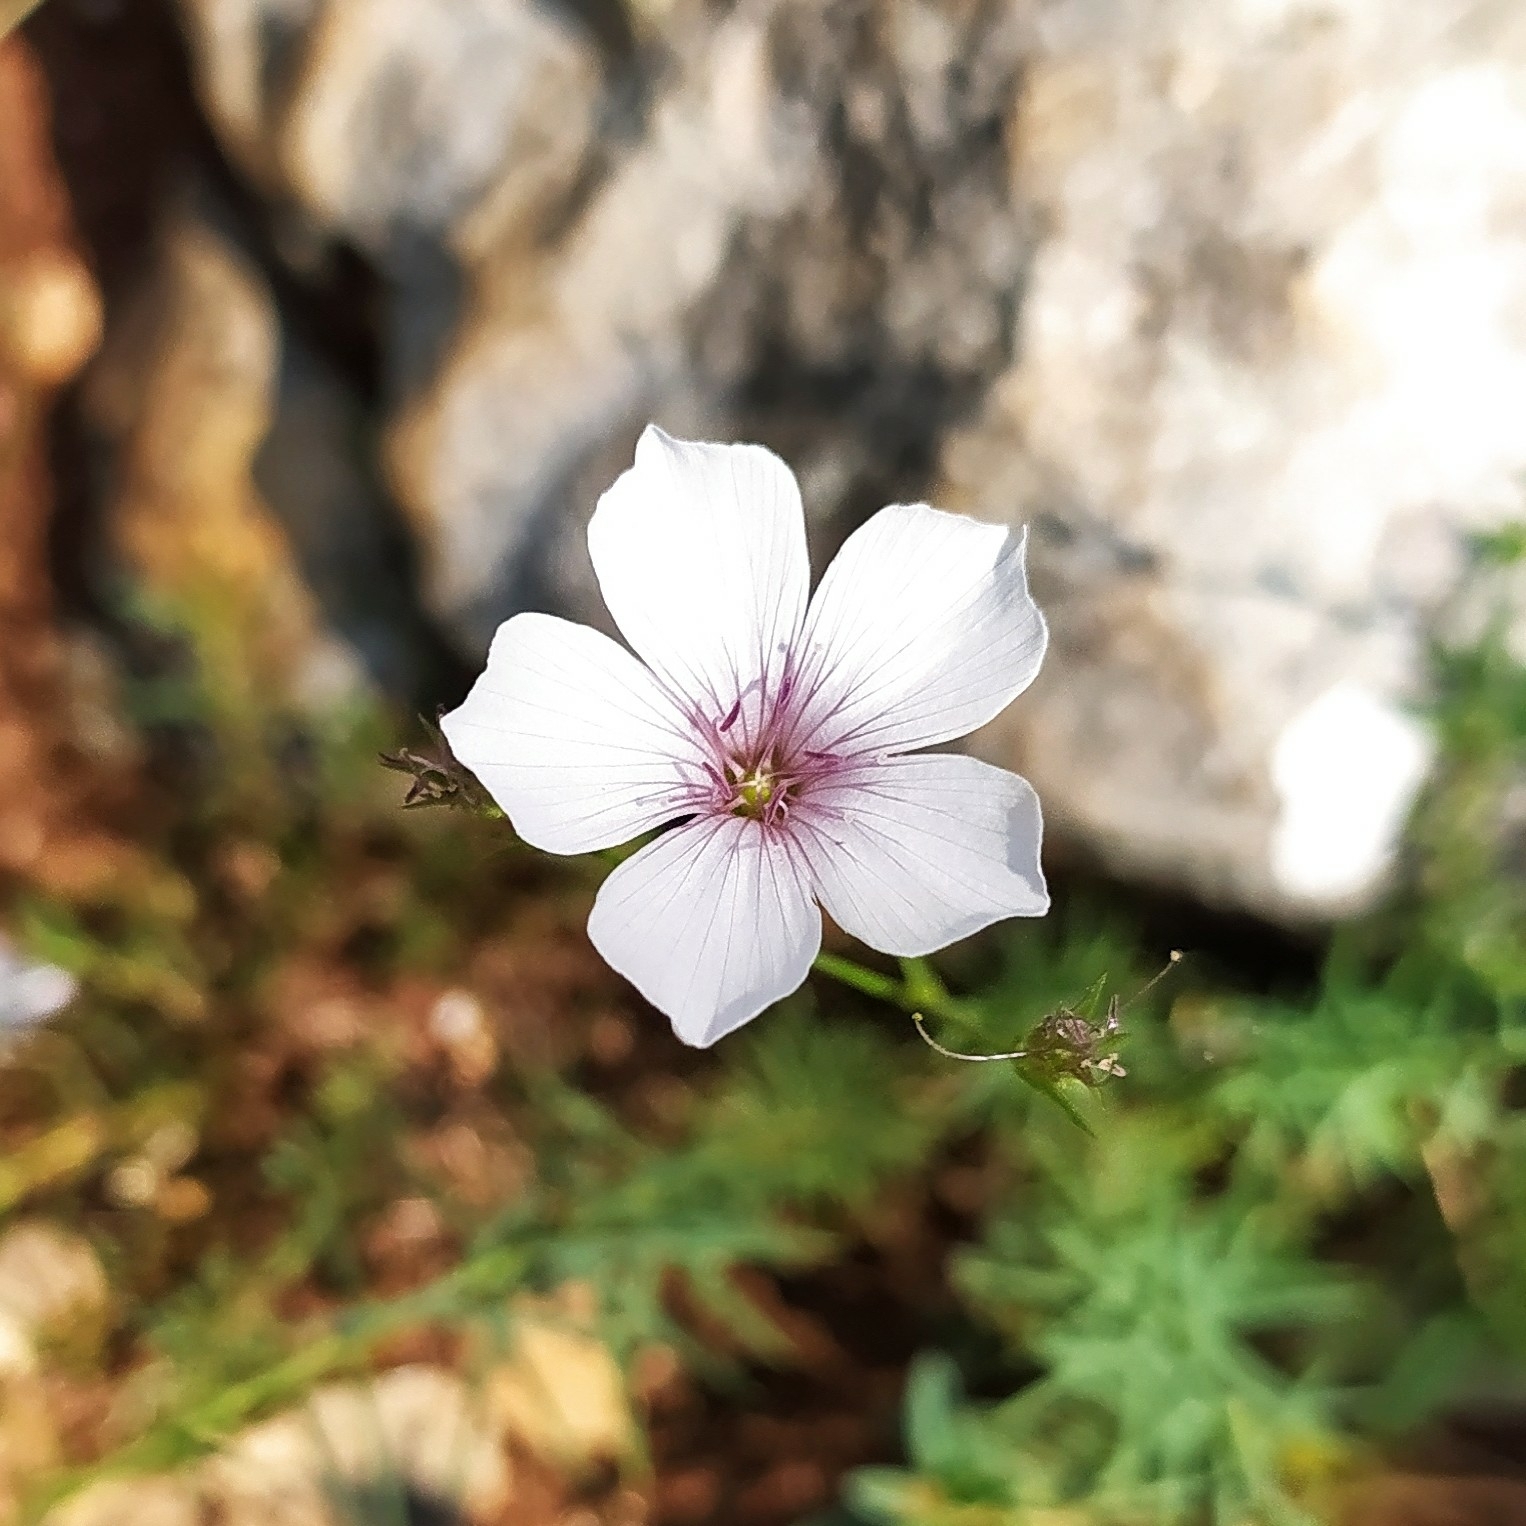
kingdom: Plantae
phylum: Tracheophyta
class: Magnoliopsida
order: Malpighiales
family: Linaceae
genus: Linum
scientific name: Linum tenuifolium
